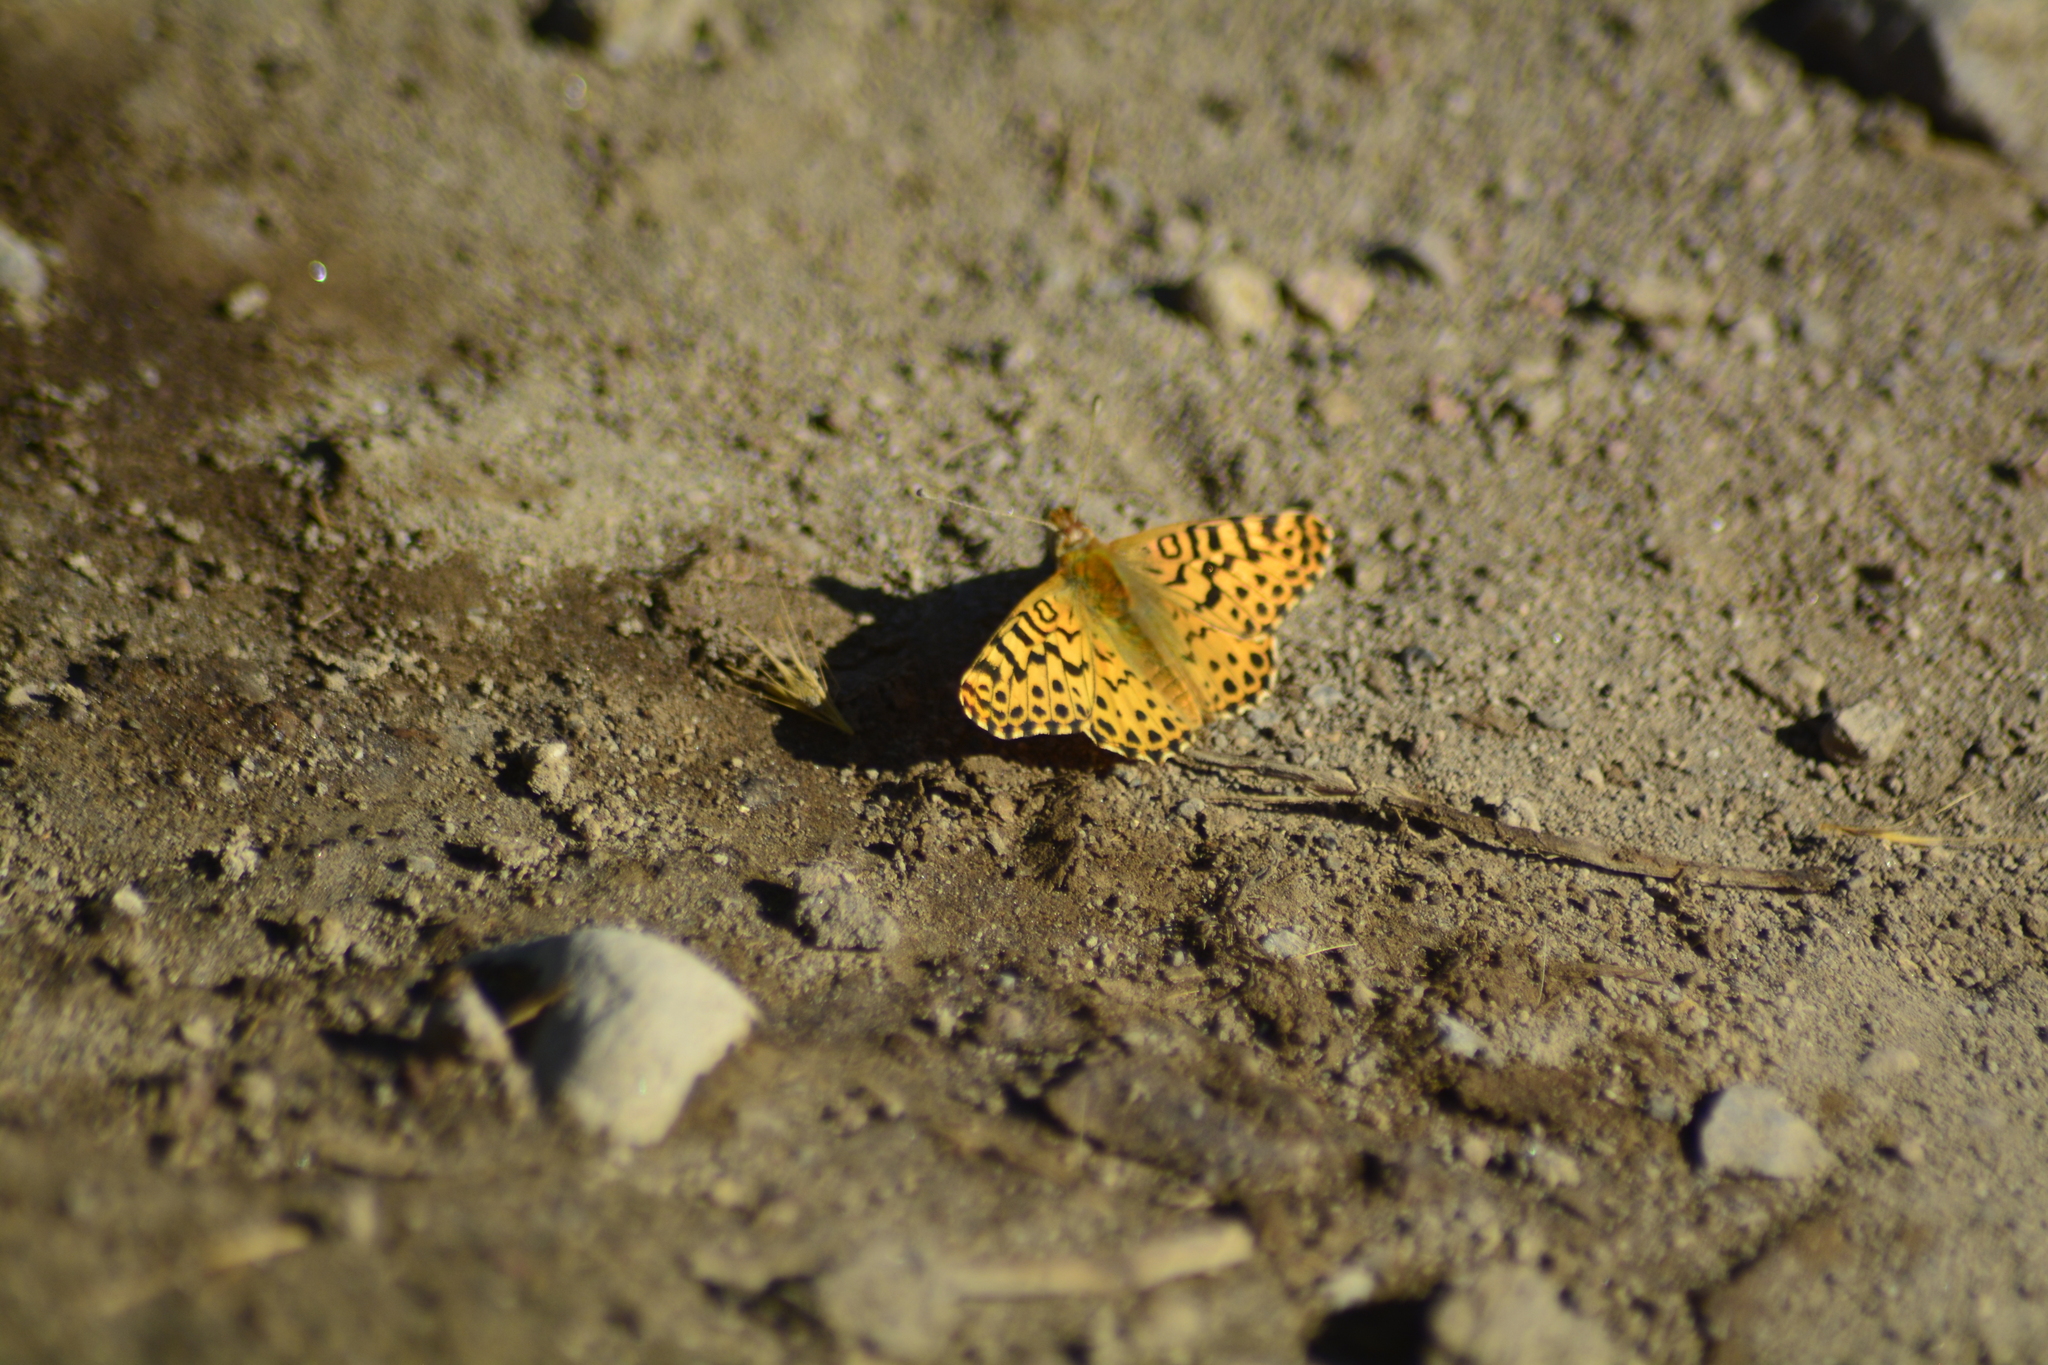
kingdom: Animalia
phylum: Arthropoda
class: Insecta
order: Lepidoptera
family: Nymphalidae
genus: Issoria
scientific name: Issoria Yramea lathonoides
